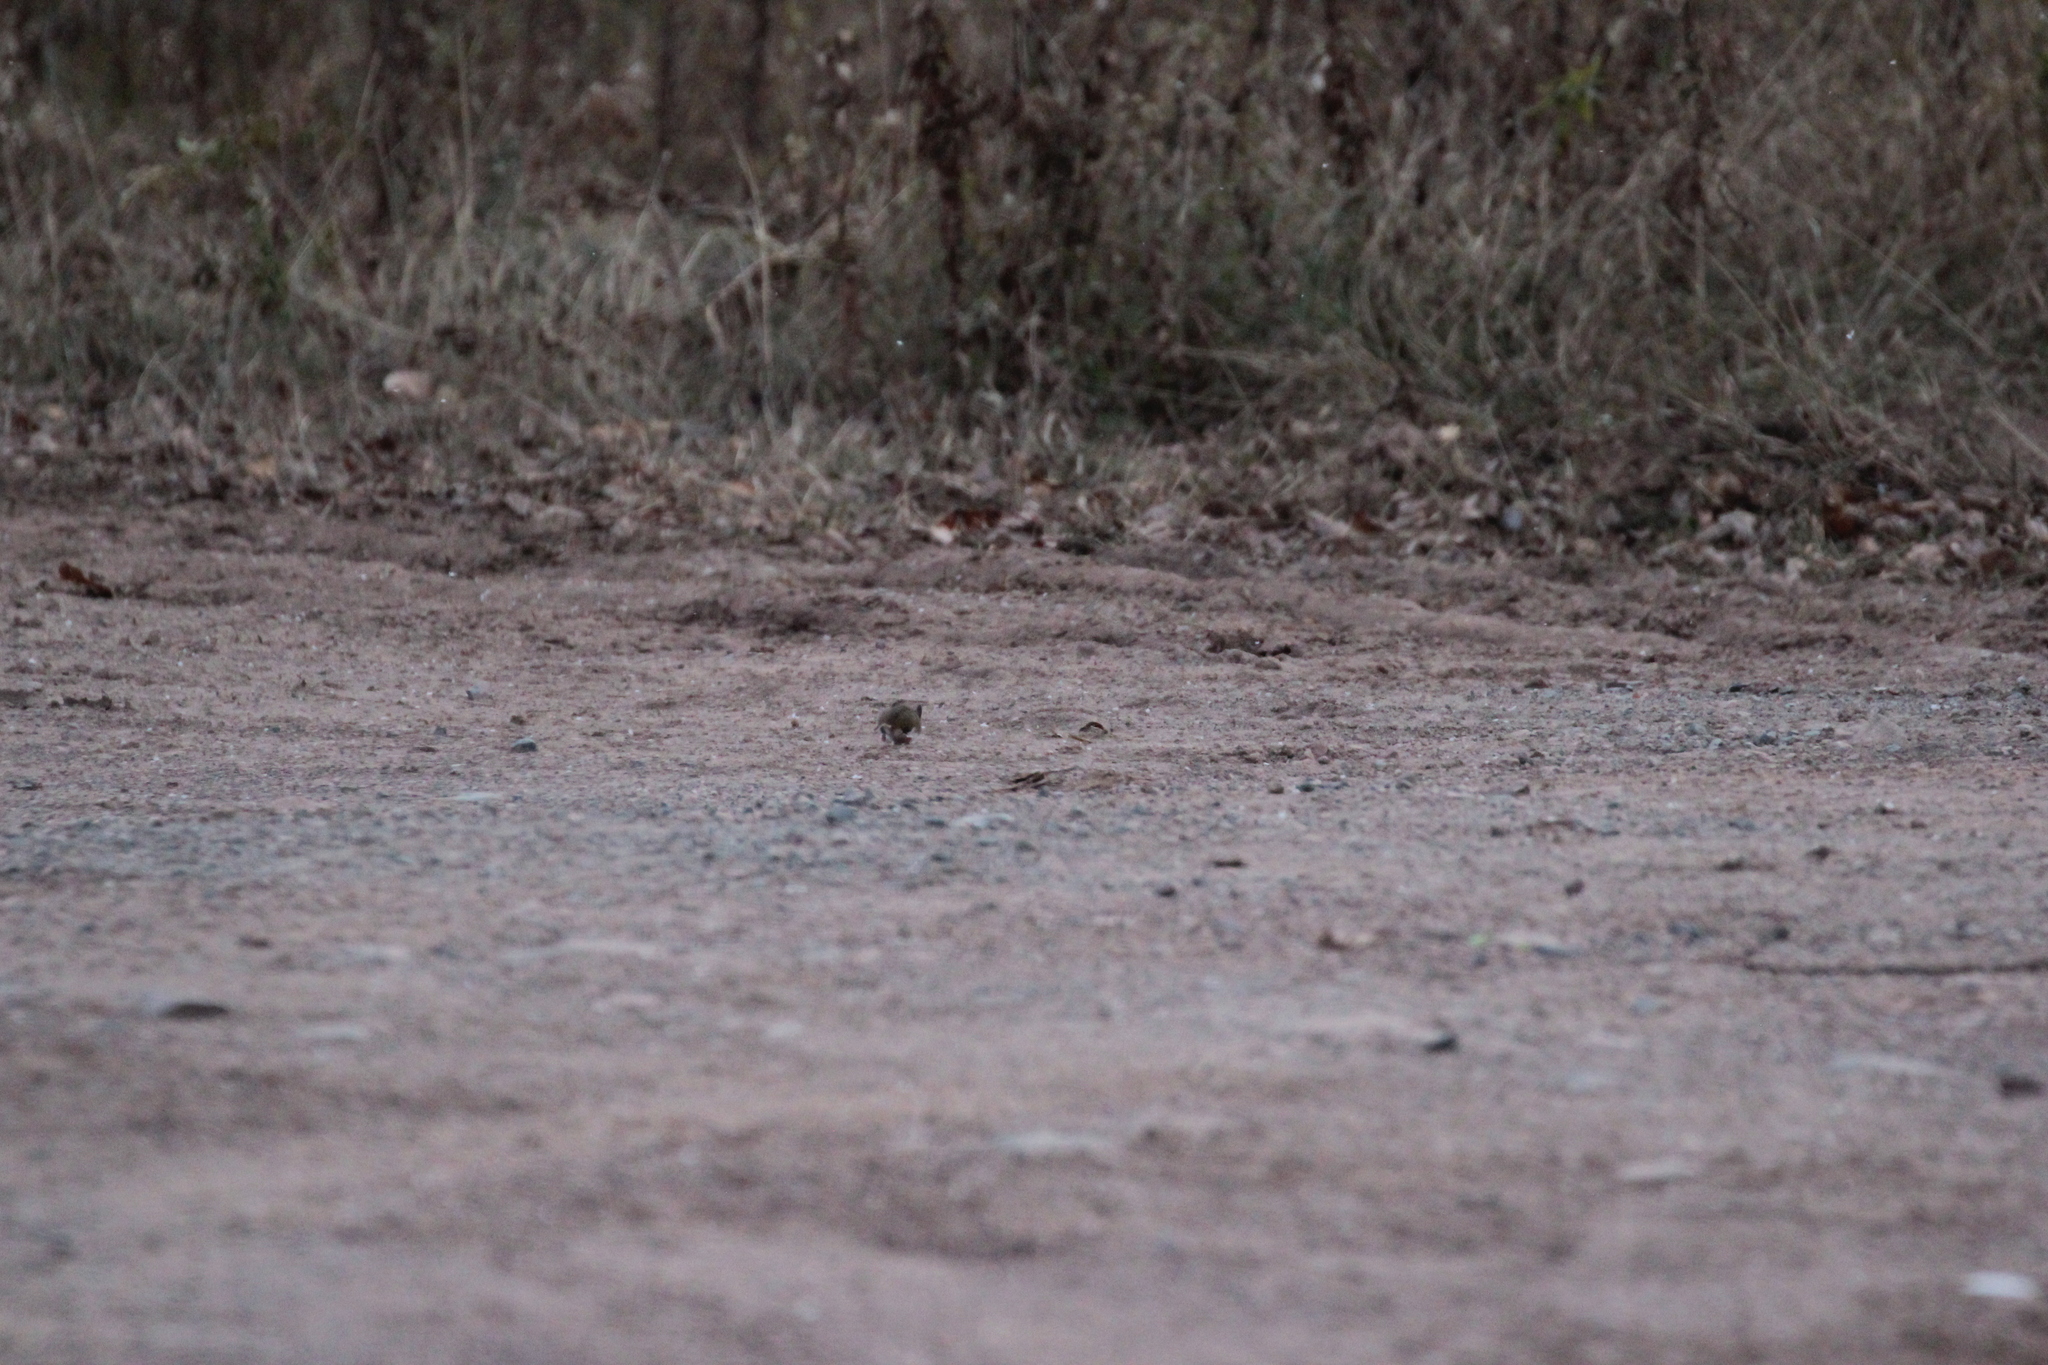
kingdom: Animalia
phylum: Chordata
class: Mammalia
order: Rodentia
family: Cricetidae
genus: Peromyscus
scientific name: Peromyscus maniculatus
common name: Deer mouse
